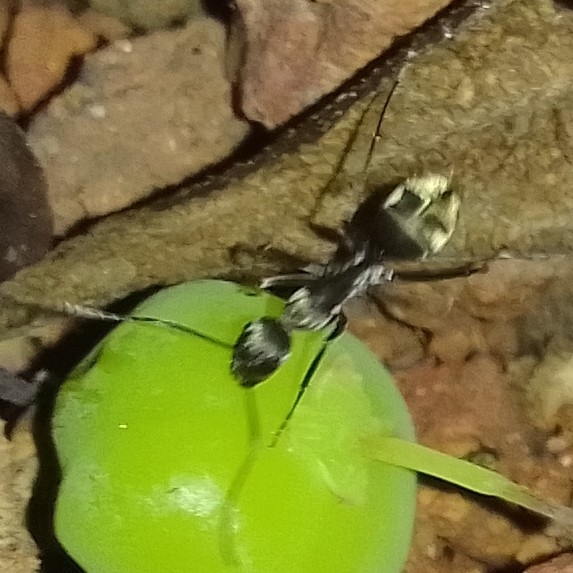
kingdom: Animalia
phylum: Arthropoda
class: Insecta
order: Hymenoptera
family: Formicidae
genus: Camponotus
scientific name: Camponotus parius
